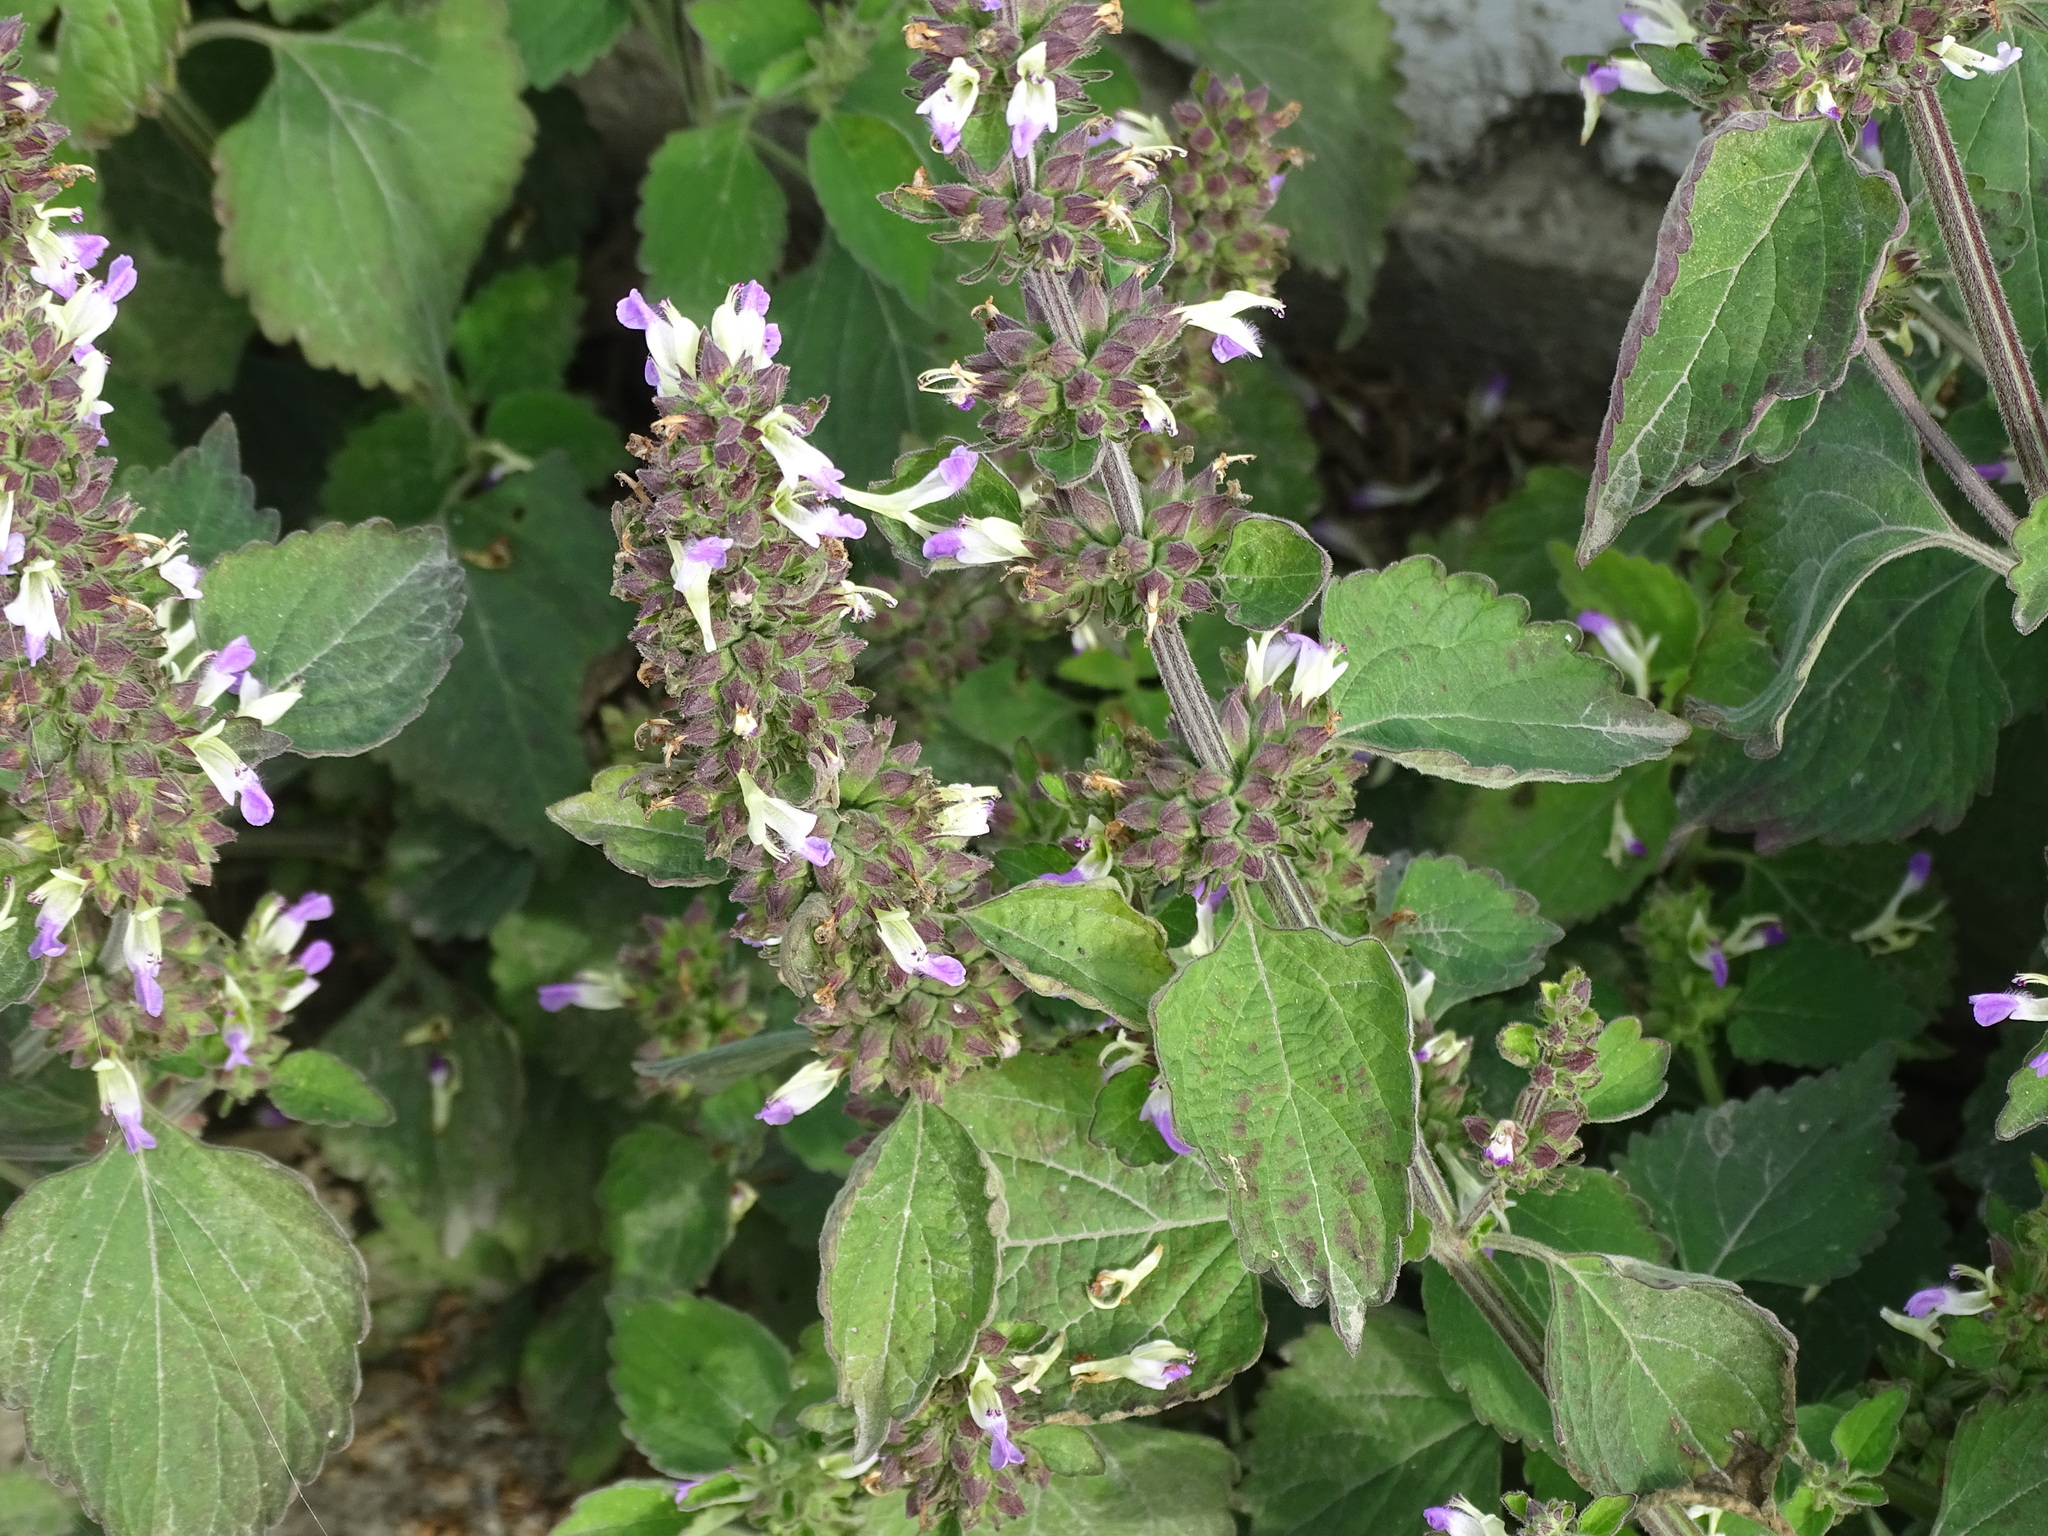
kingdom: Plantae
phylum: Tracheophyta
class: Magnoliopsida
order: Lamiales
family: Lamiaceae
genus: Anisomeles
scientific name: Anisomeles indica
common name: Catmint
